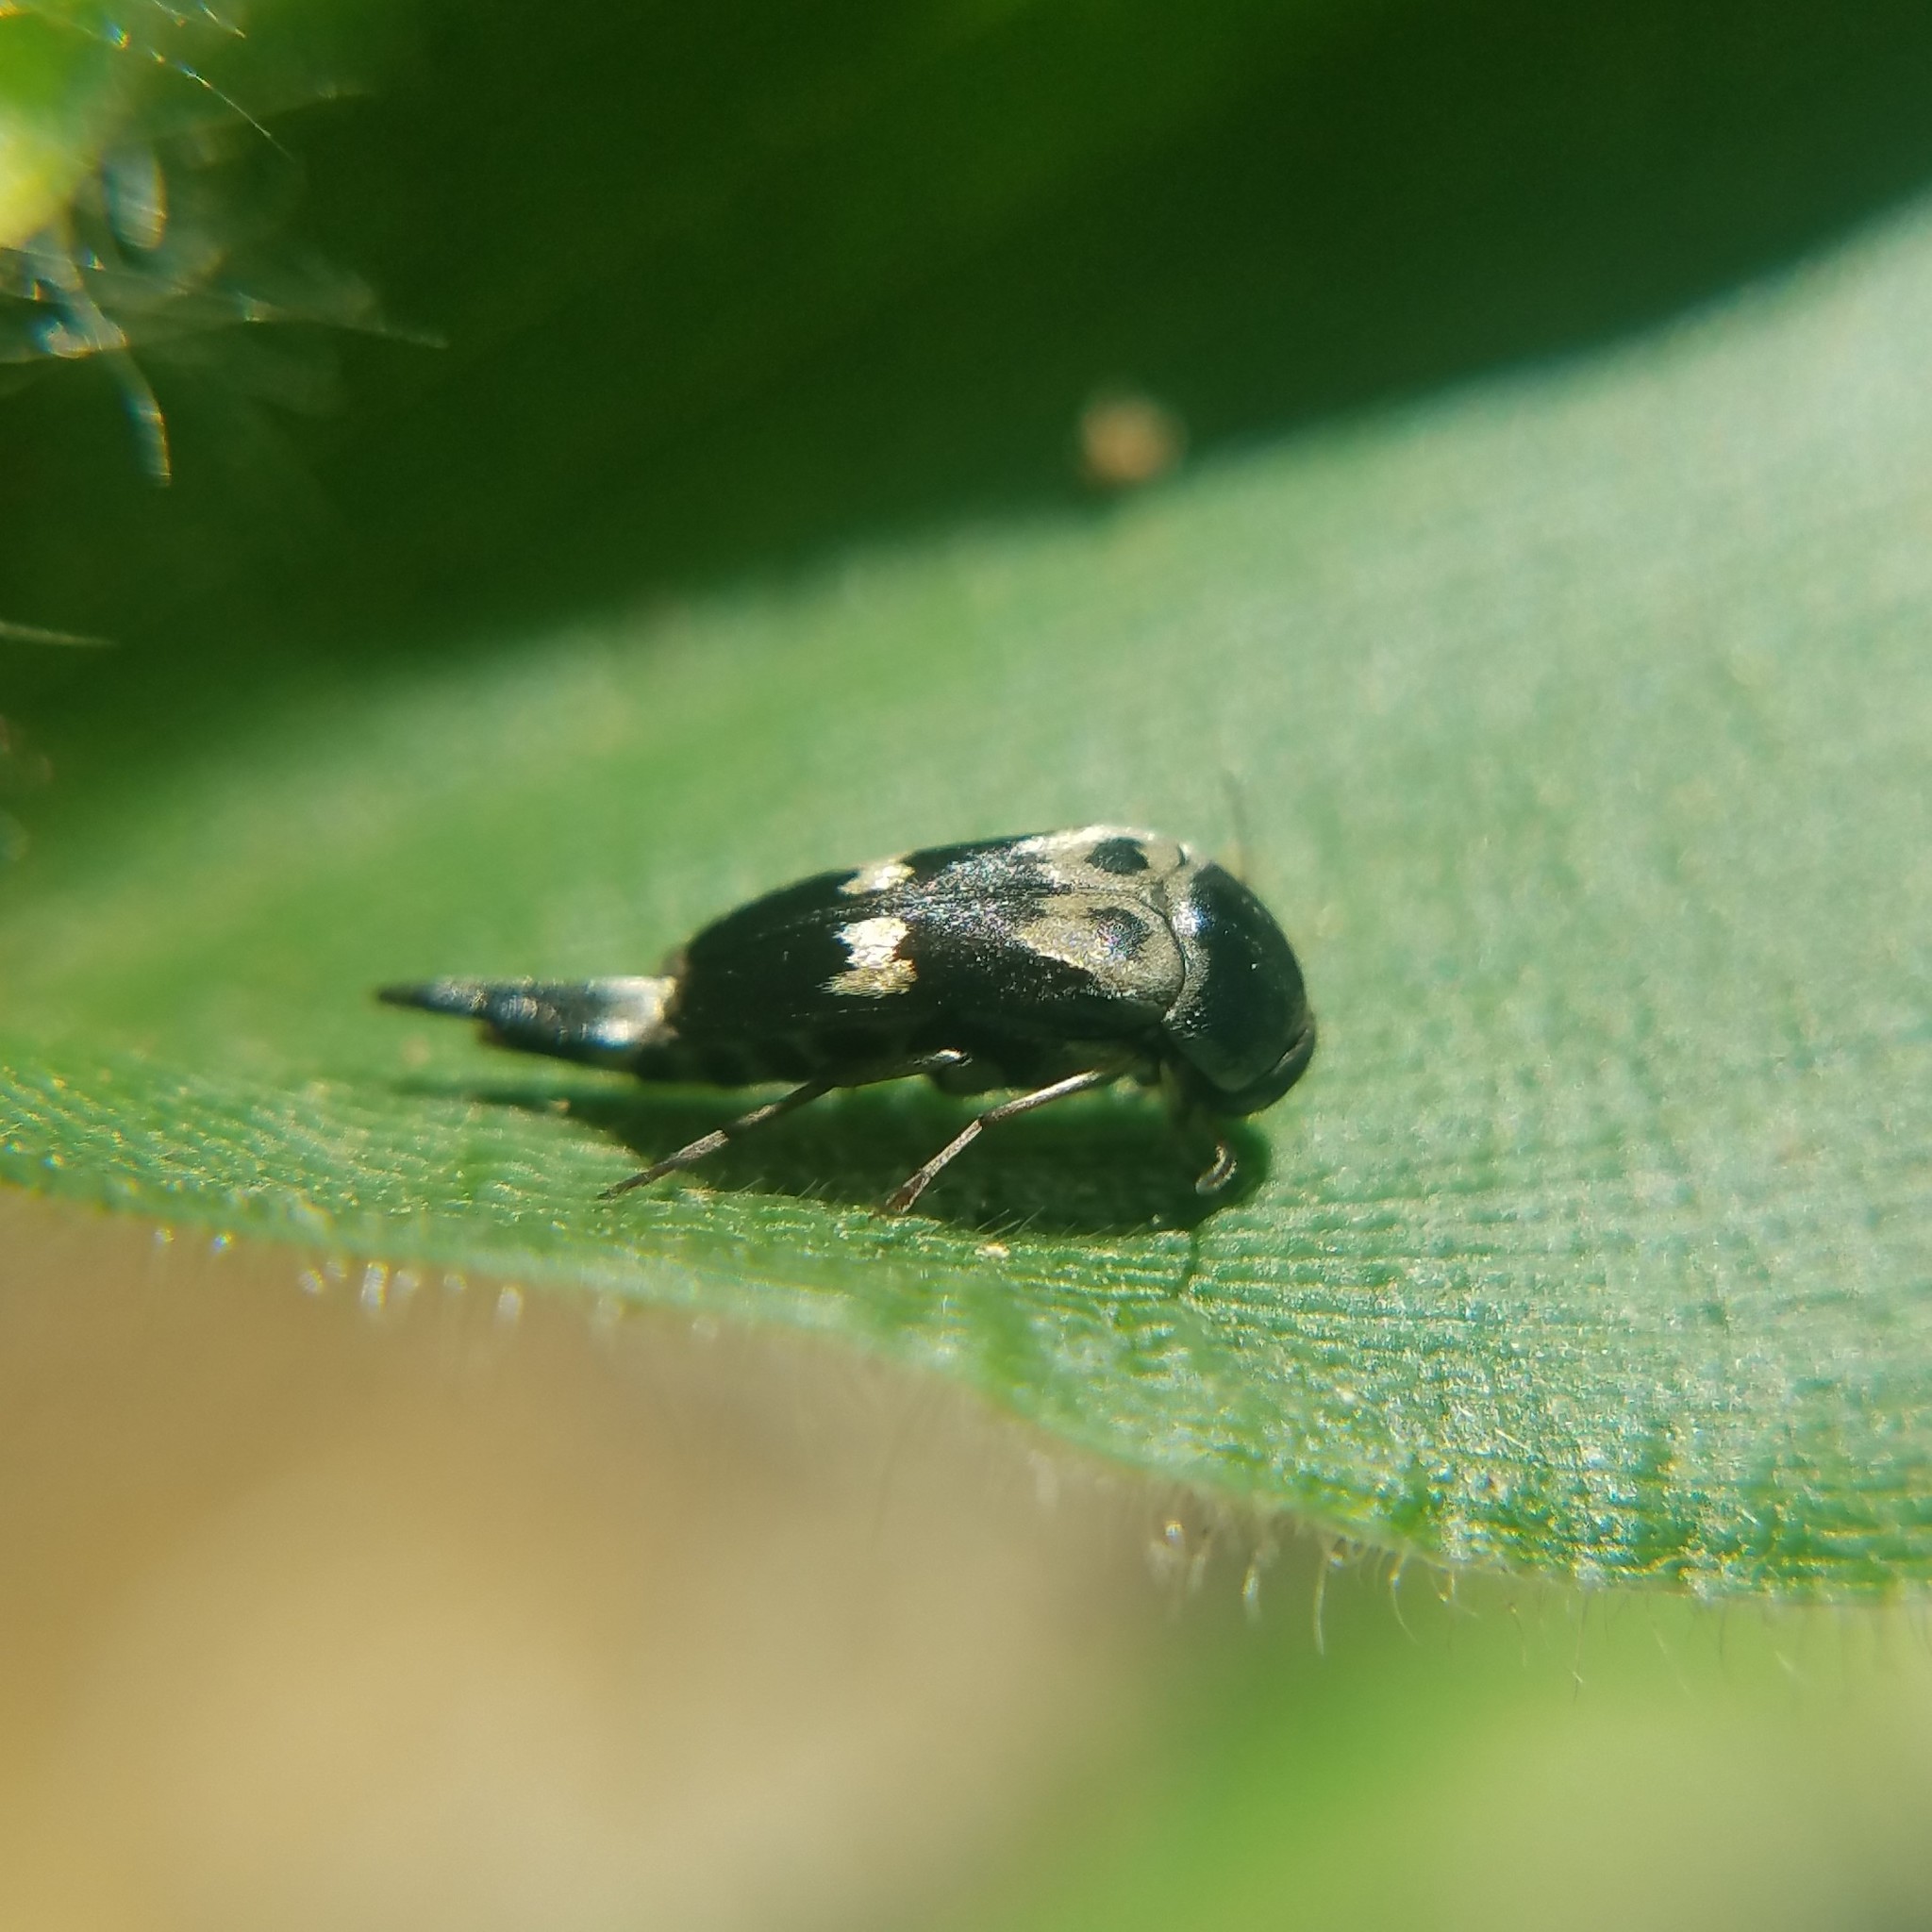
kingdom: Animalia
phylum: Arthropoda
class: Insecta
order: Coleoptera
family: Mordellidae
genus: Glipa
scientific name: Glipa oculata
